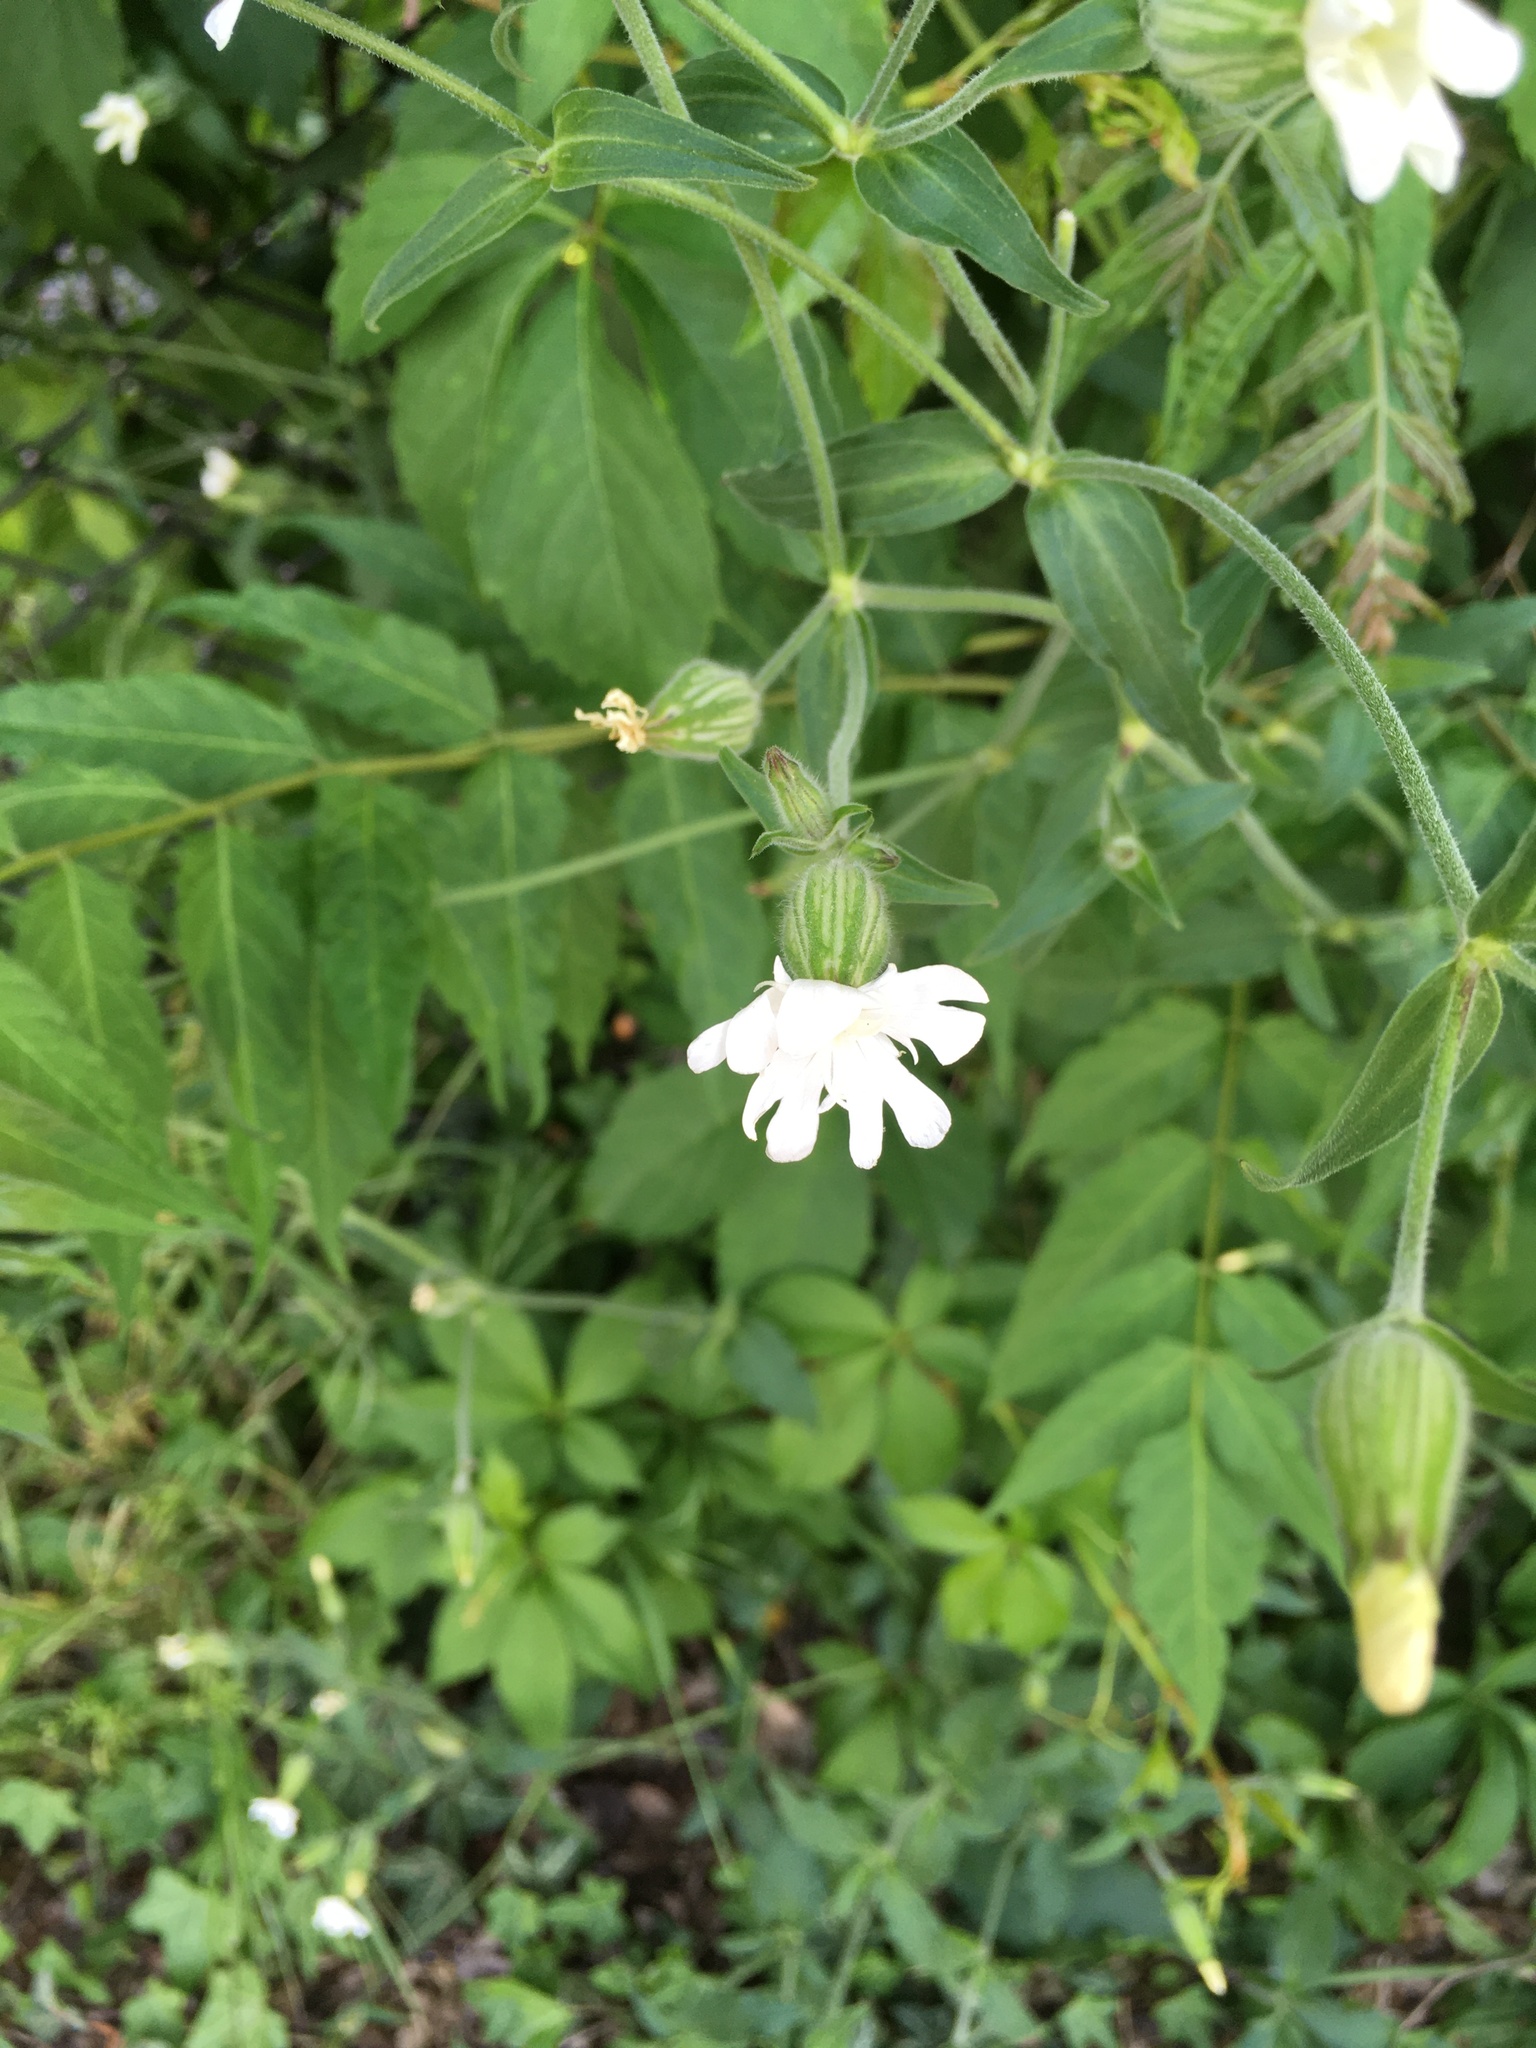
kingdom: Plantae
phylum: Tracheophyta
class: Magnoliopsida
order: Caryophyllales
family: Caryophyllaceae
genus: Silene
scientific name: Silene latifolia
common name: White campion
